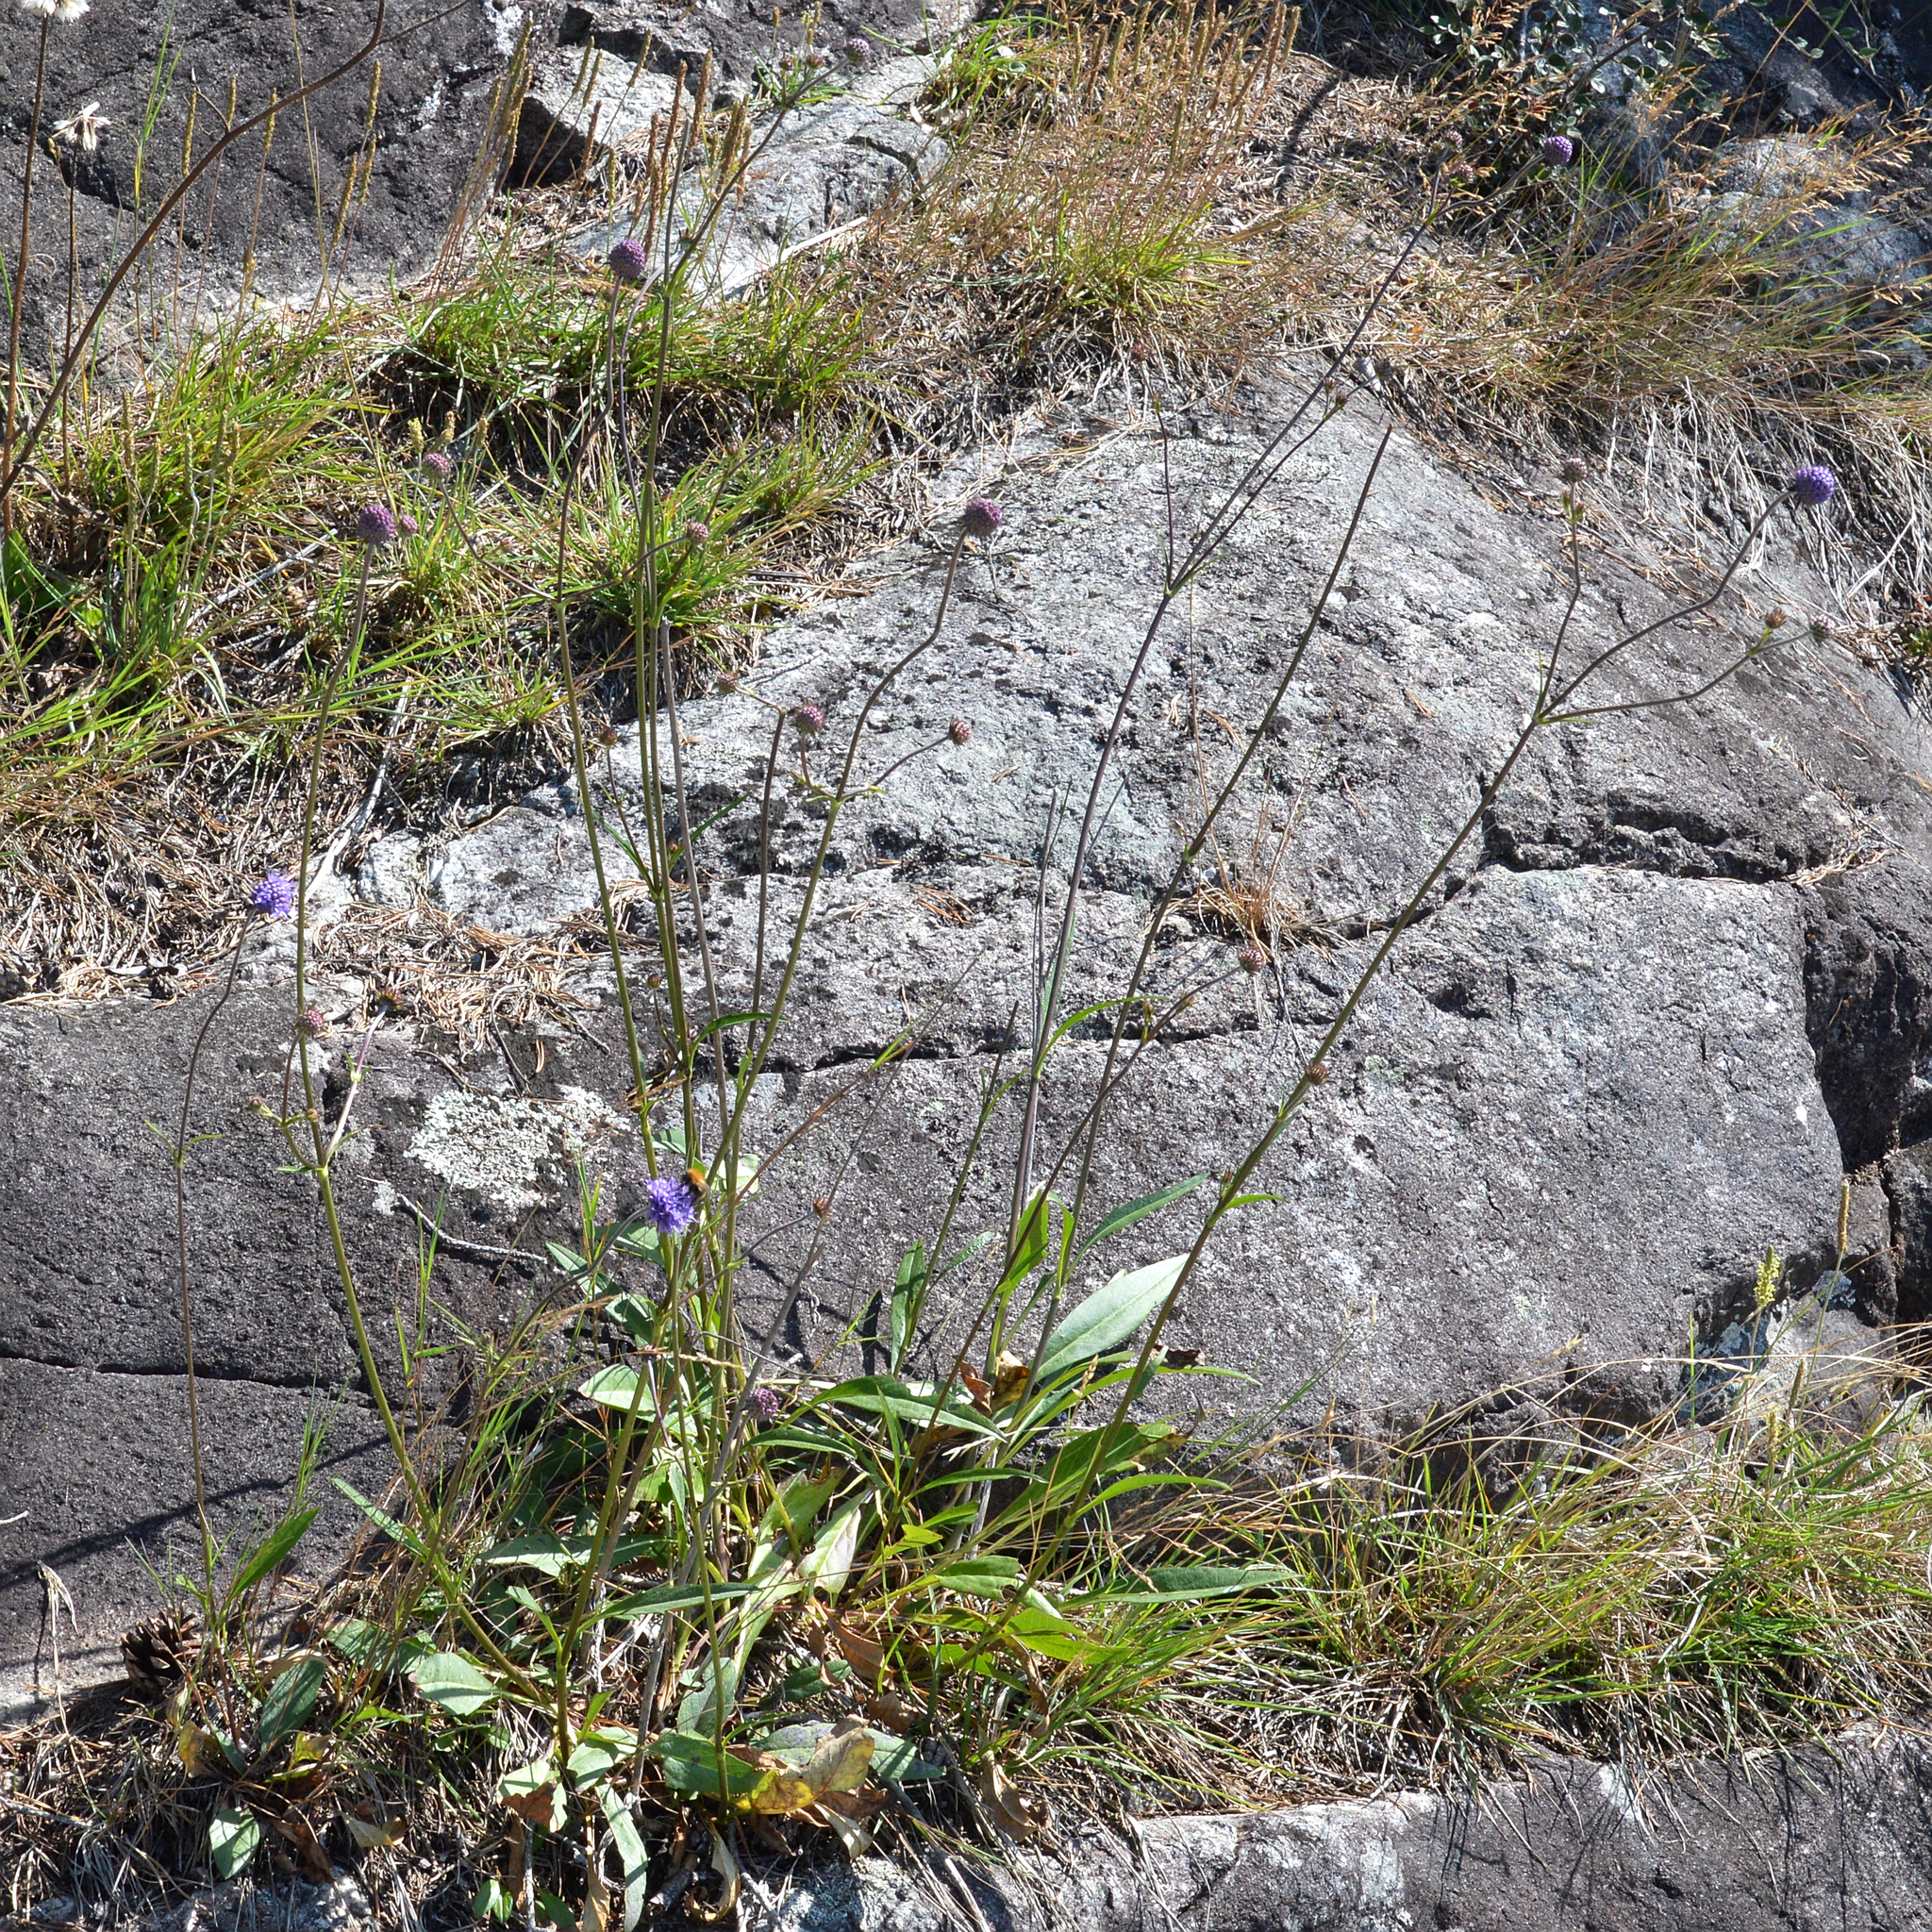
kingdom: Plantae
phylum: Tracheophyta
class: Magnoliopsida
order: Dipsacales
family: Caprifoliaceae
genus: Succisa
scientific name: Succisa pratensis
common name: Devil's-bit
